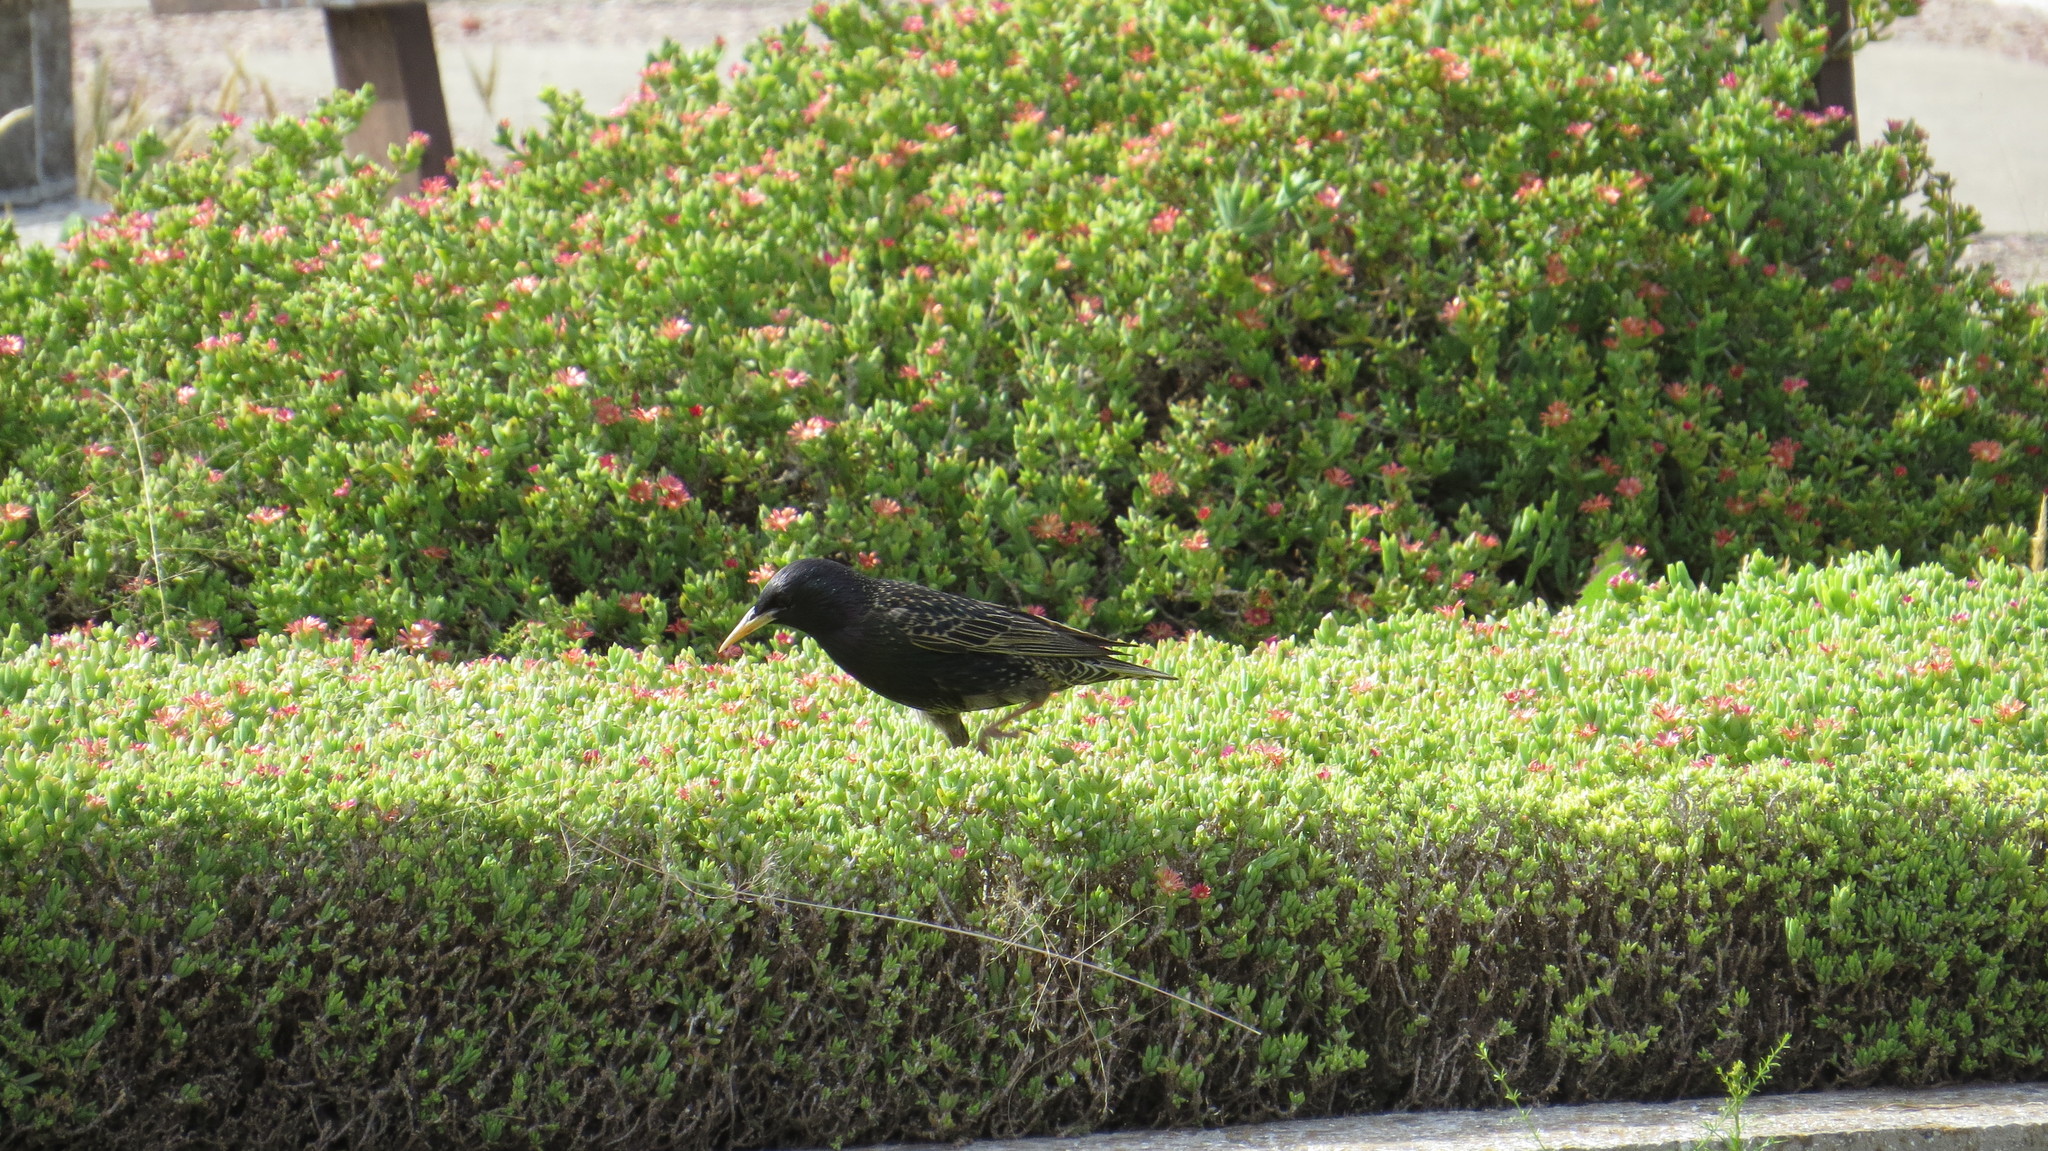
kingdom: Animalia
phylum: Chordata
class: Aves
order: Passeriformes
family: Sturnidae
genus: Sturnus
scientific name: Sturnus vulgaris
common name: Common starling
